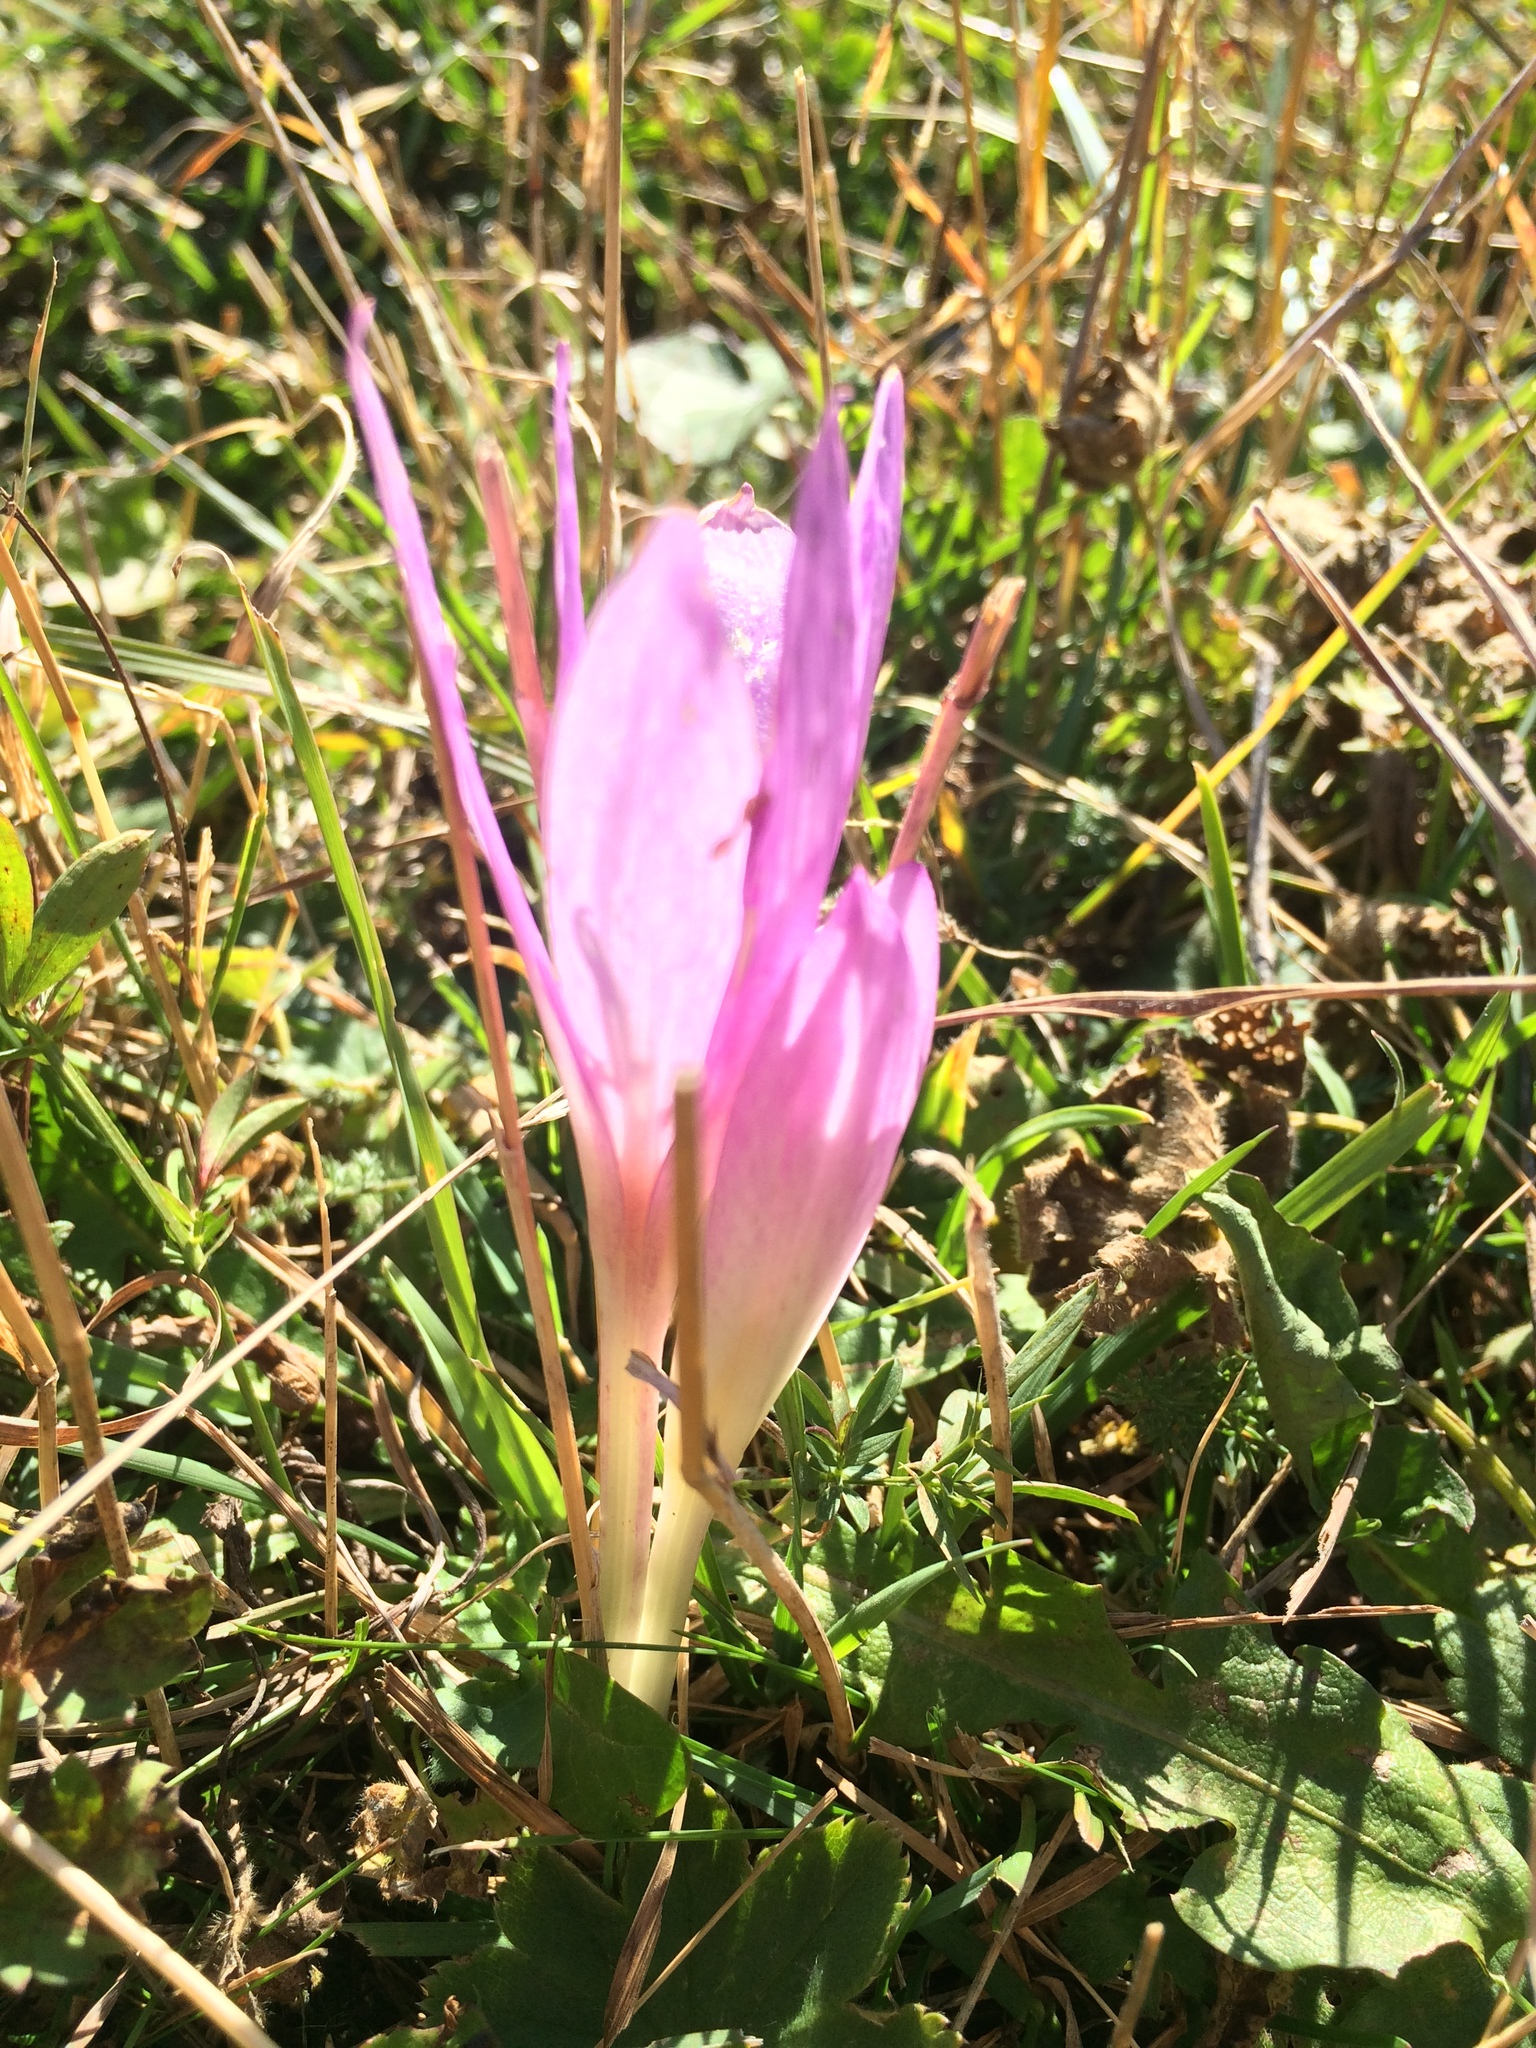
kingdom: Plantae
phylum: Tracheophyta
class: Liliopsida
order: Liliales
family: Colchicaceae
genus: Colchicum
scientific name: Colchicum autumnale
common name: Autumn crocus
